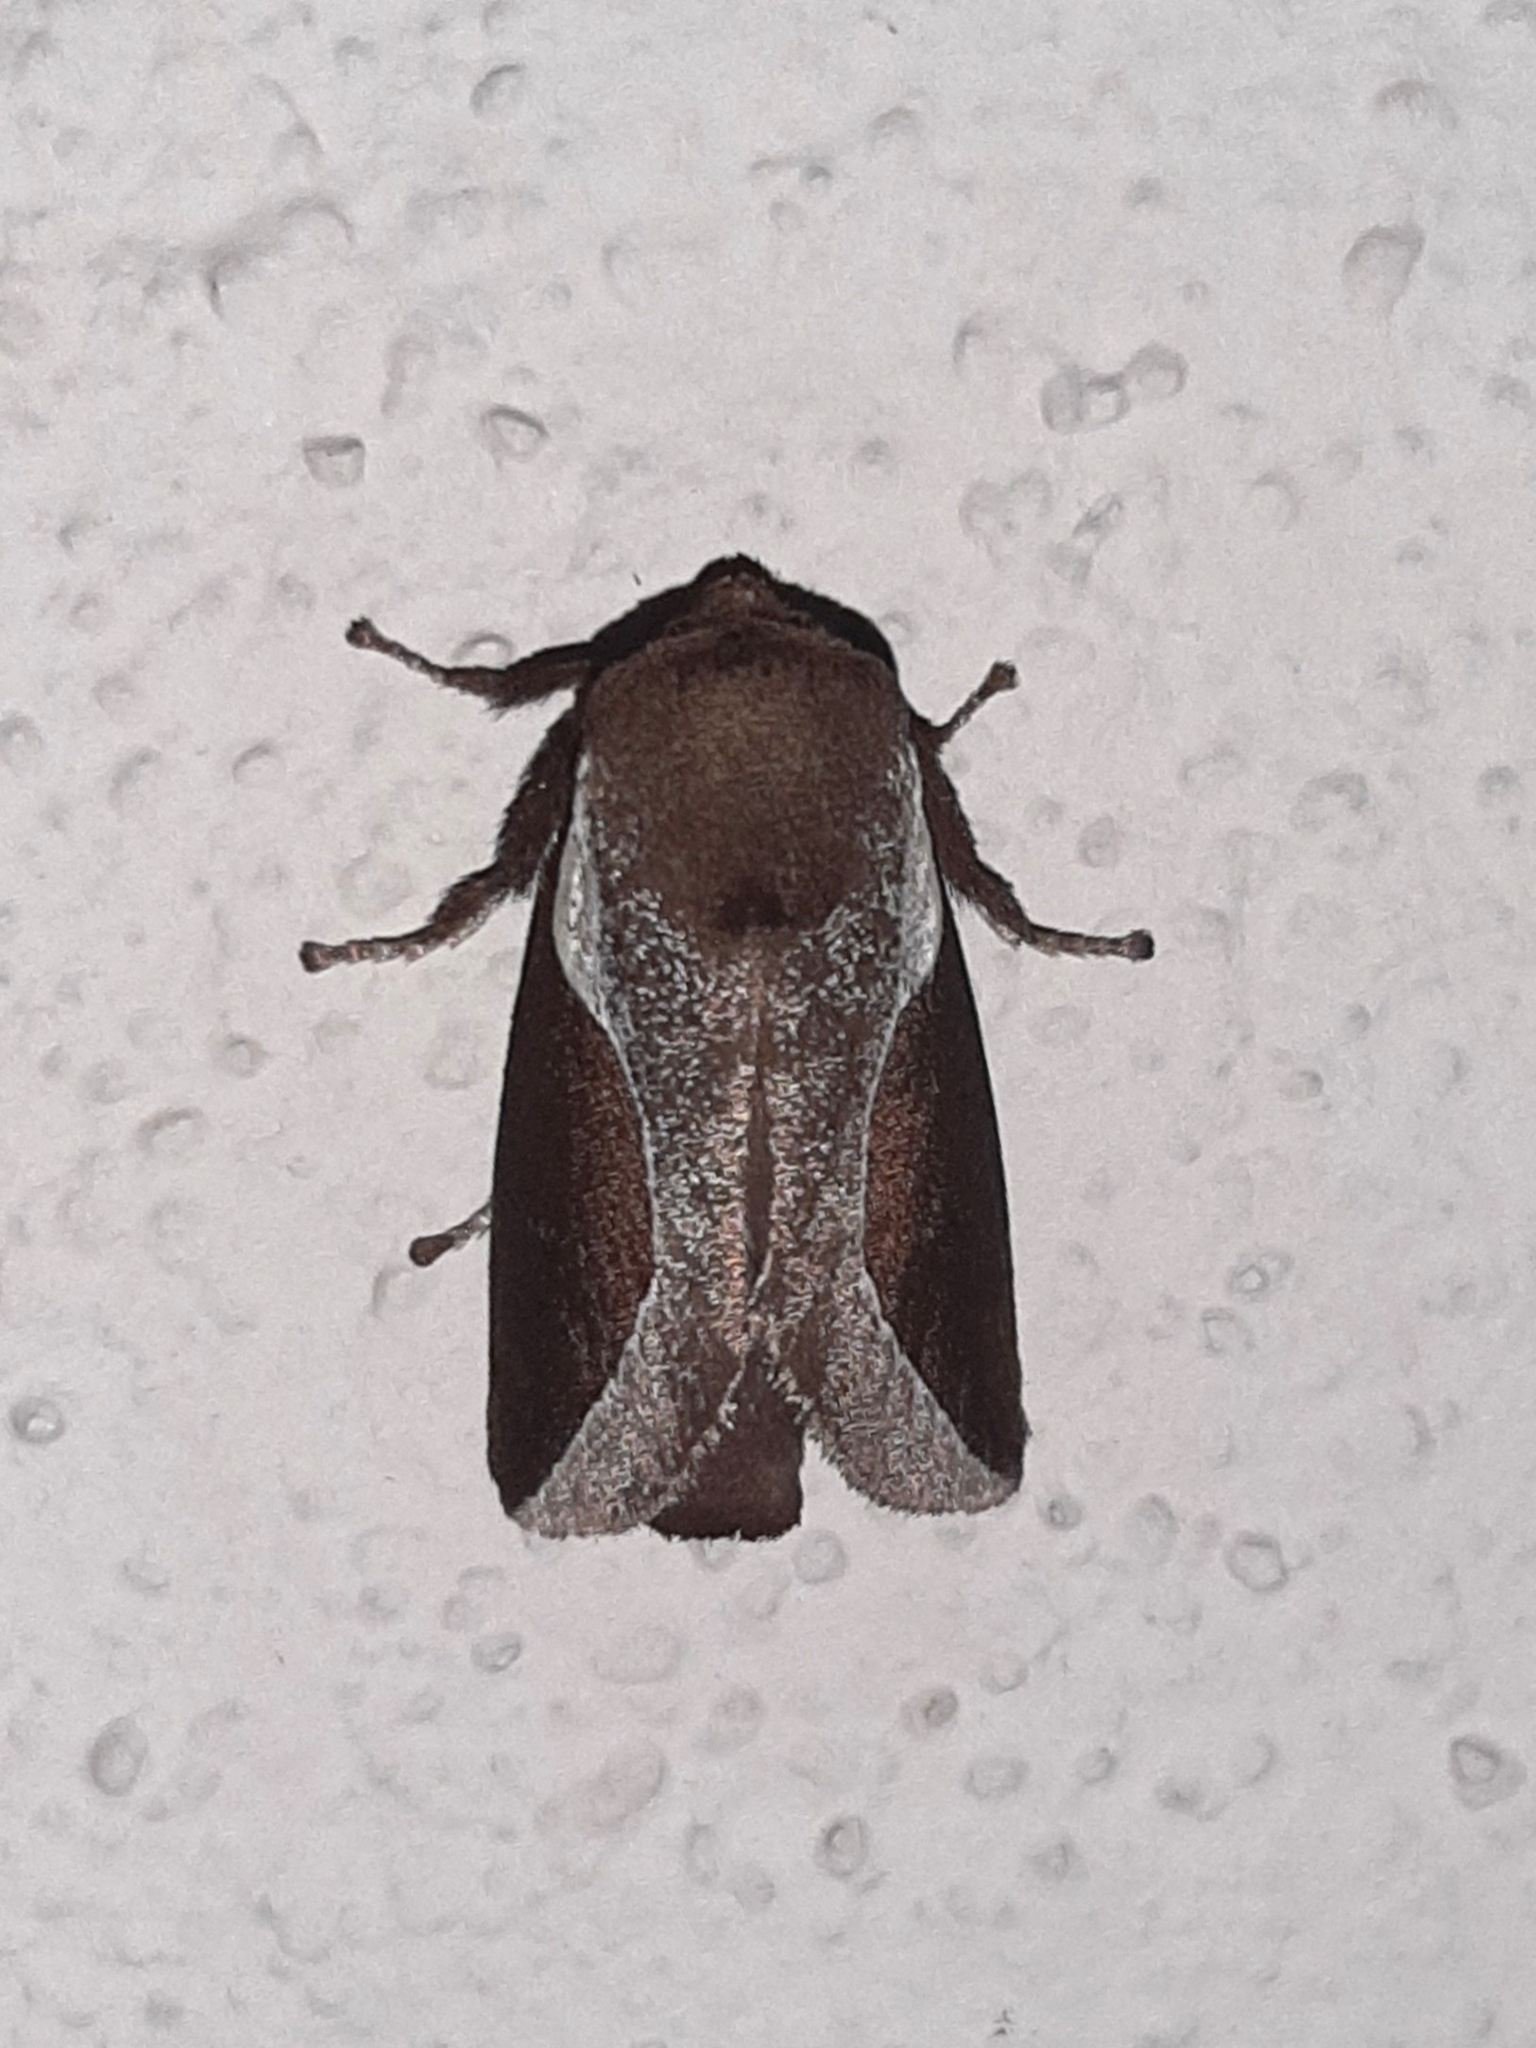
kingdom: Animalia
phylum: Arthropoda
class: Insecta
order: Lepidoptera
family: Limacodidae
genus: Prolimacodes
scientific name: Prolimacodes badia
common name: Skiff moth
